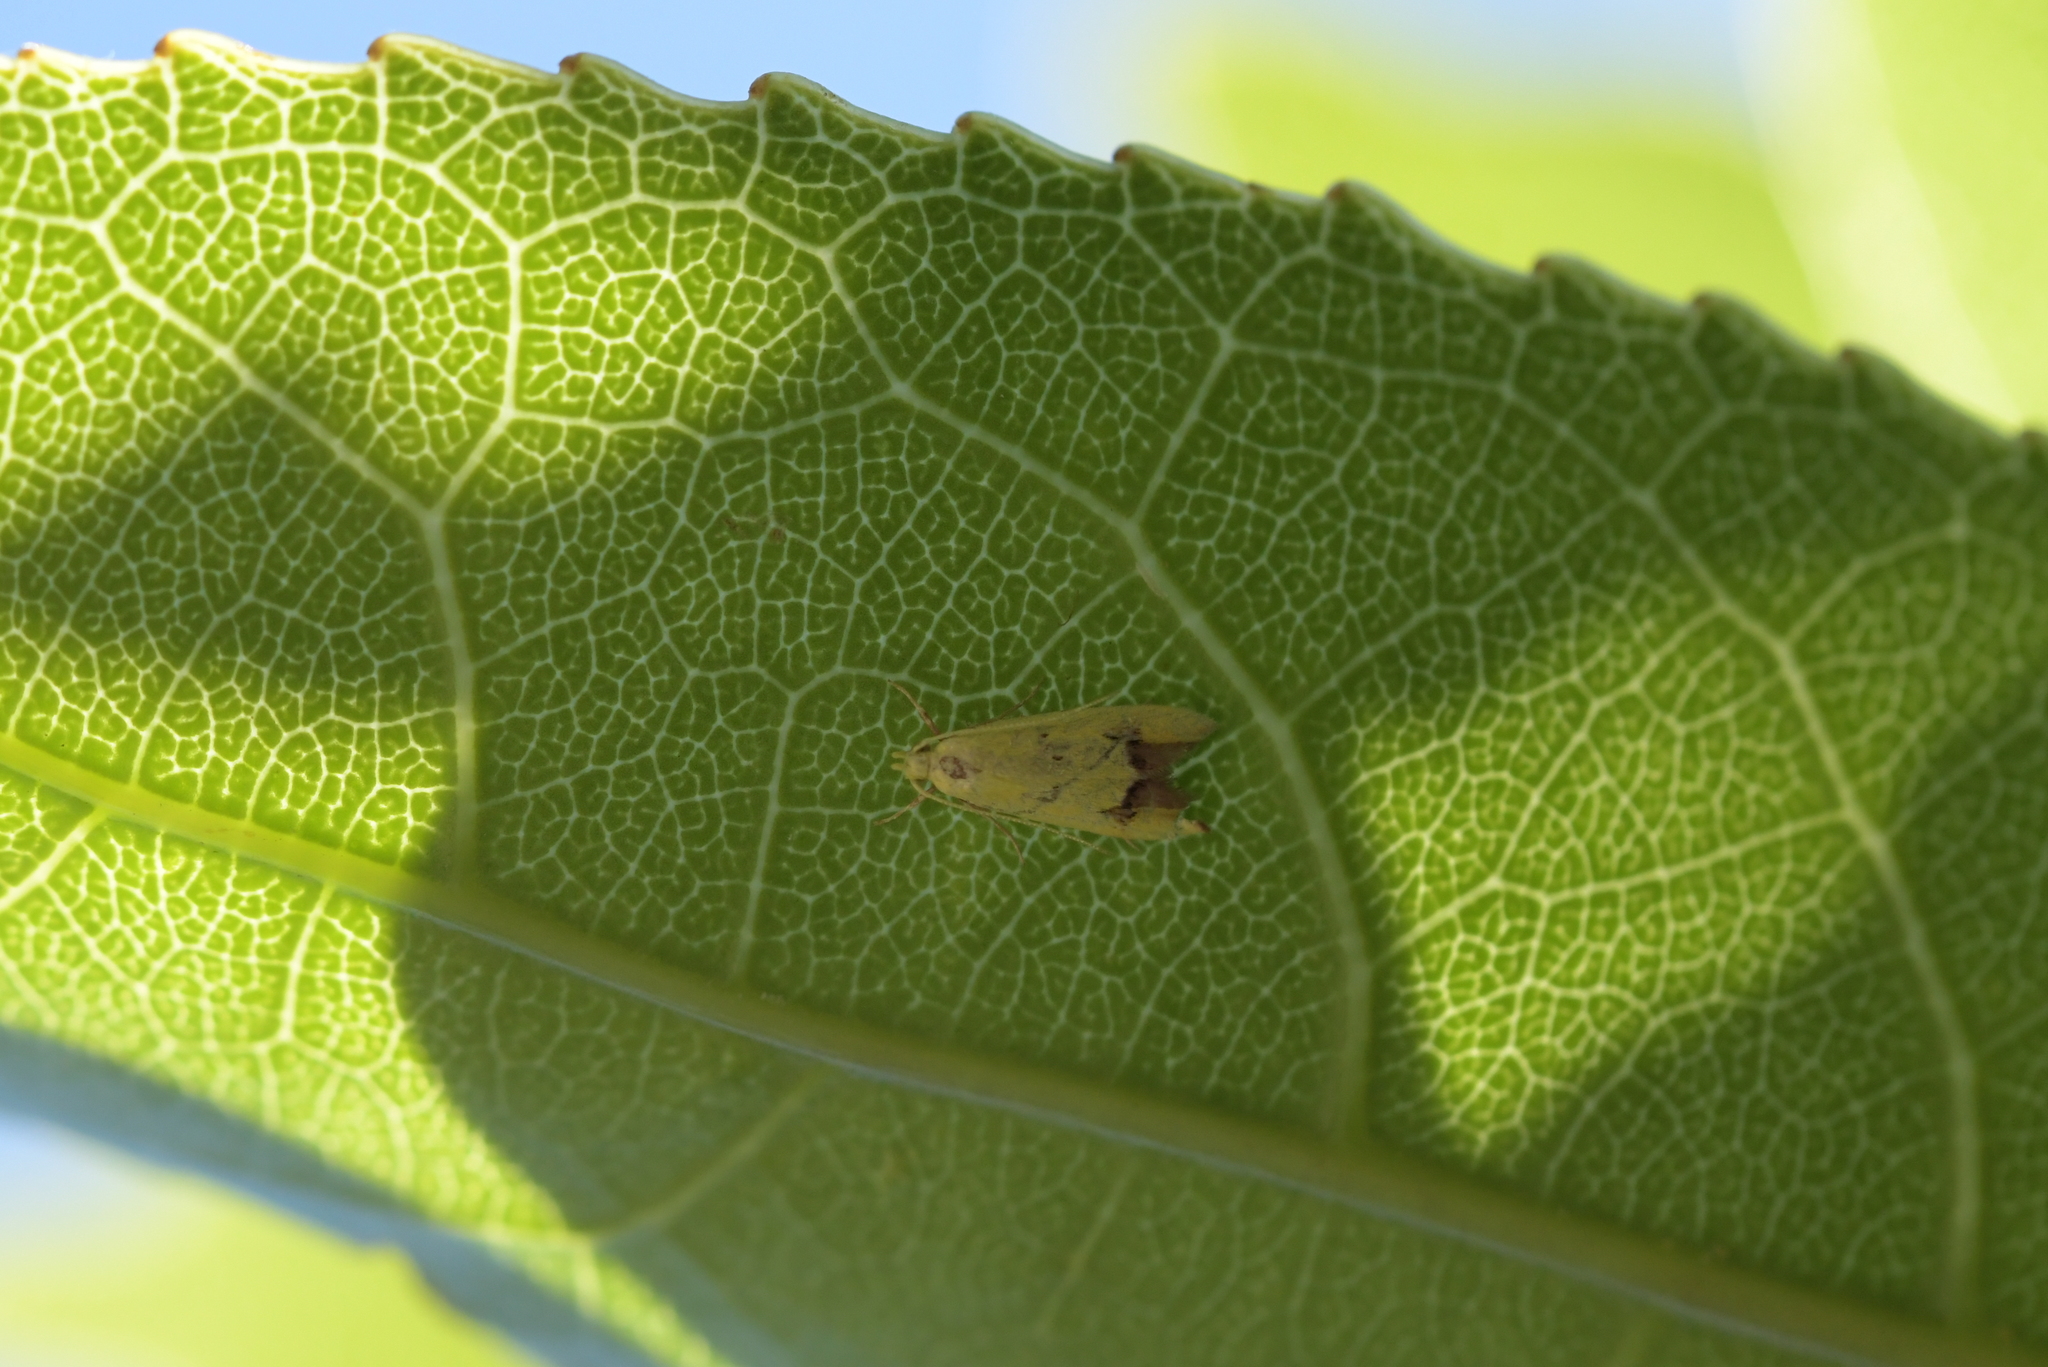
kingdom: Animalia
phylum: Arthropoda
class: Insecta
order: Lepidoptera
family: Oecophoridae
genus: Gymnobathra
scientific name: Gymnobathra flavidella
